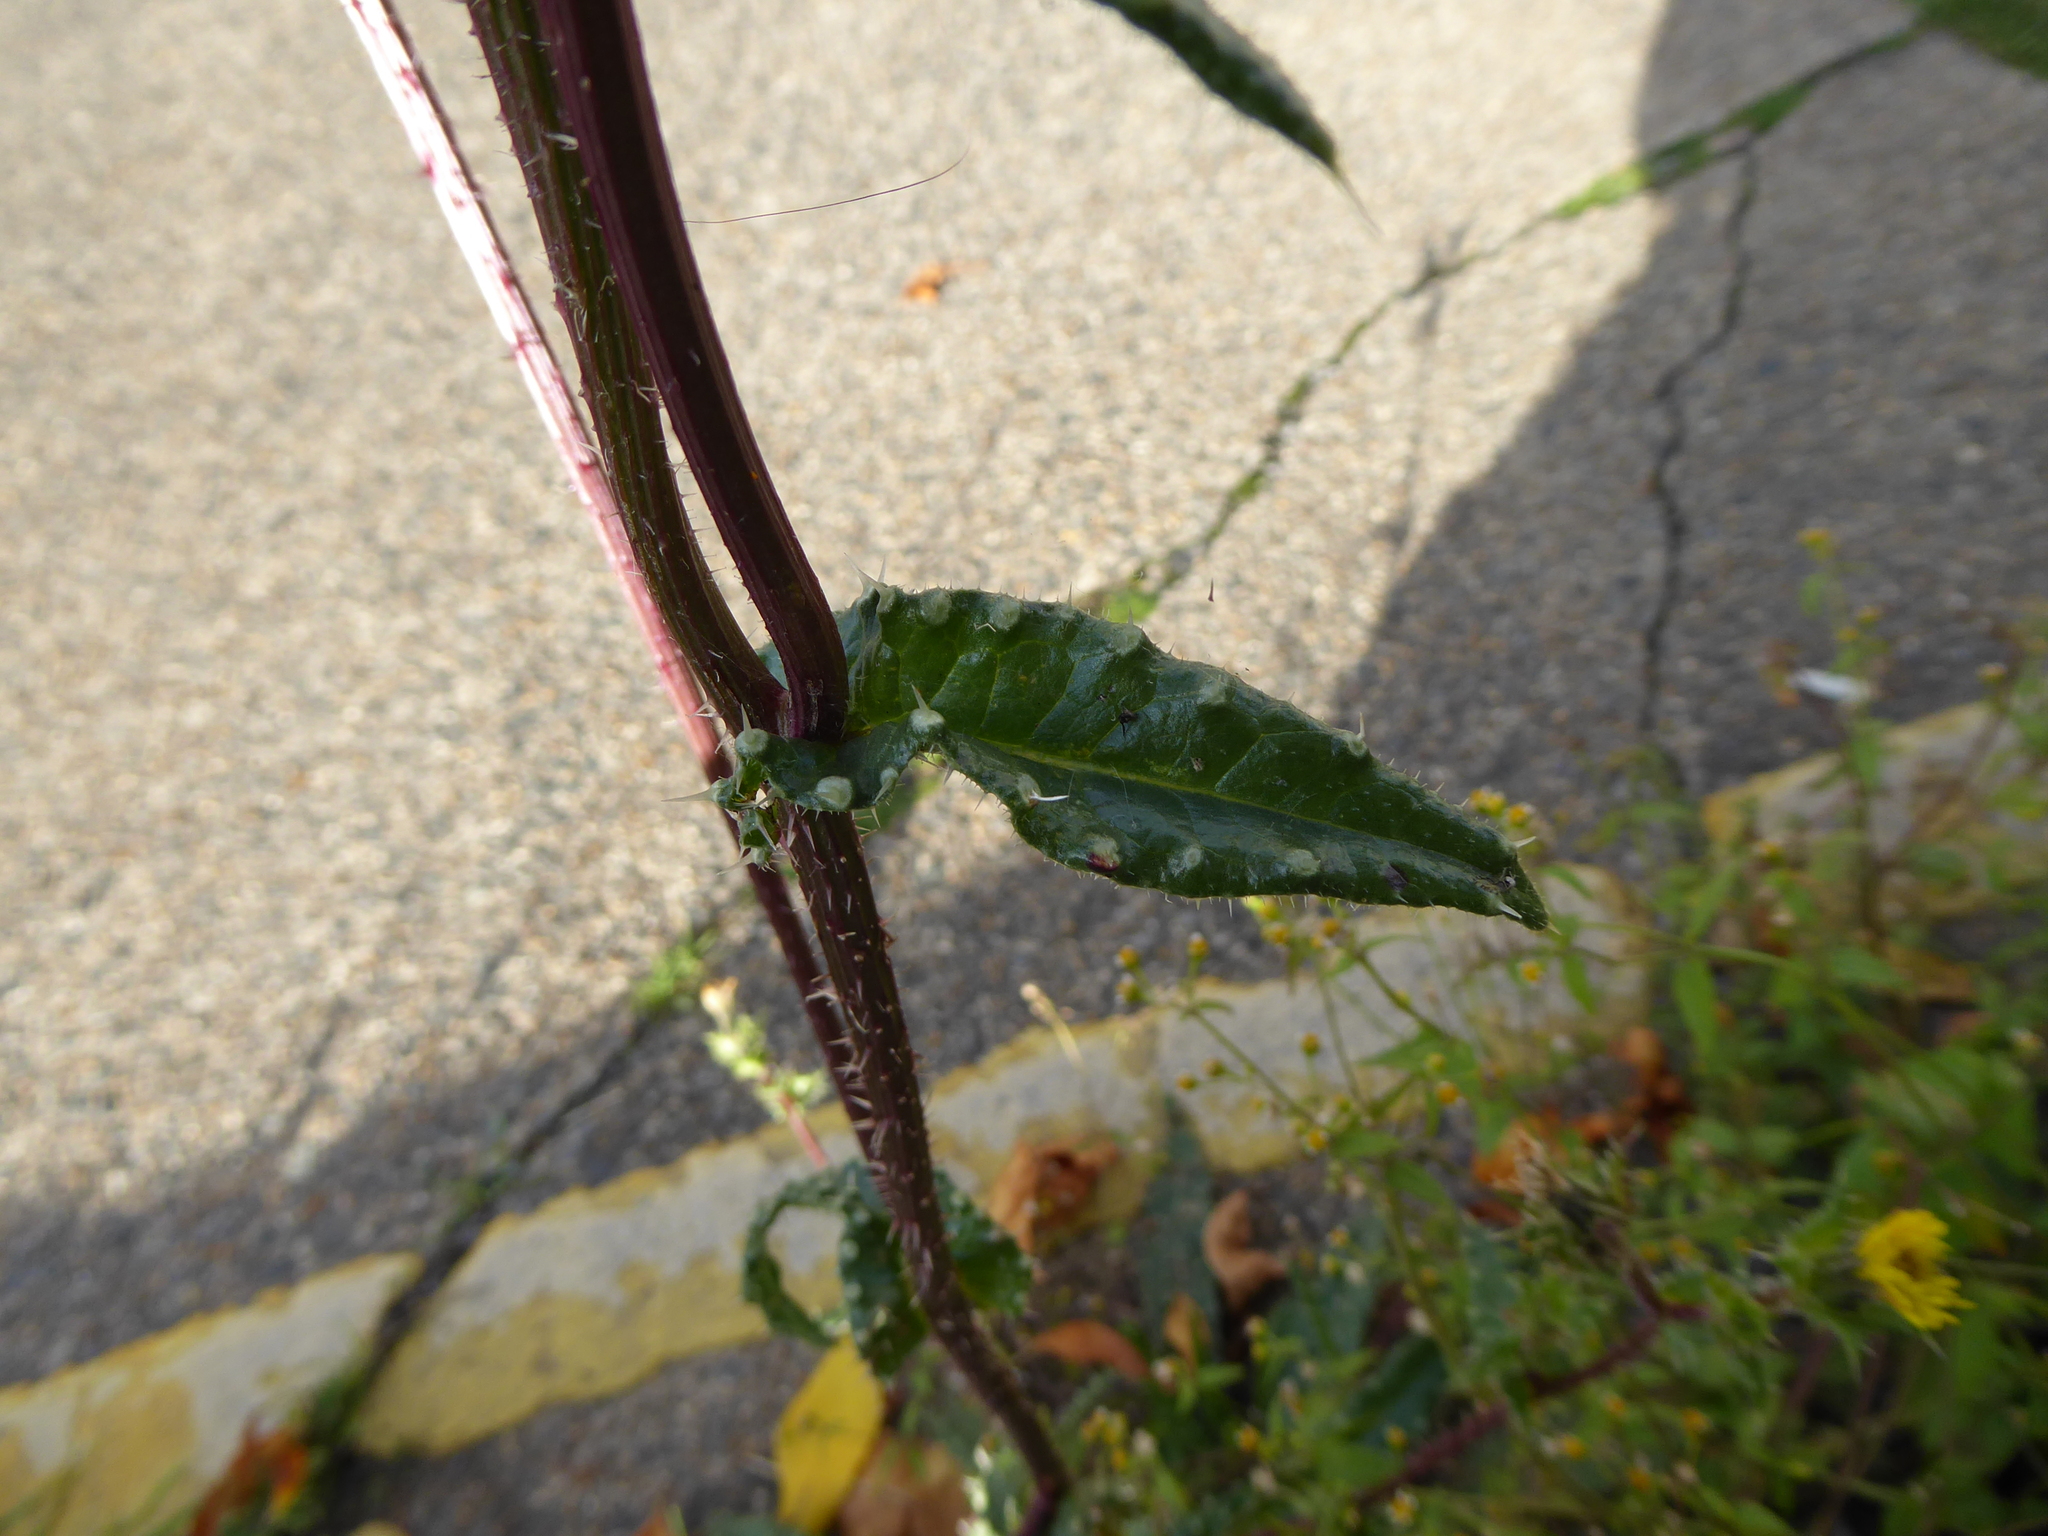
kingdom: Plantae
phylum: Tracheophyta
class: Magnoliopsida
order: Asterales
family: Asteraceae
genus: Helminthotheca
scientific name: Helminthotheca echioides
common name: Ox-tongue
